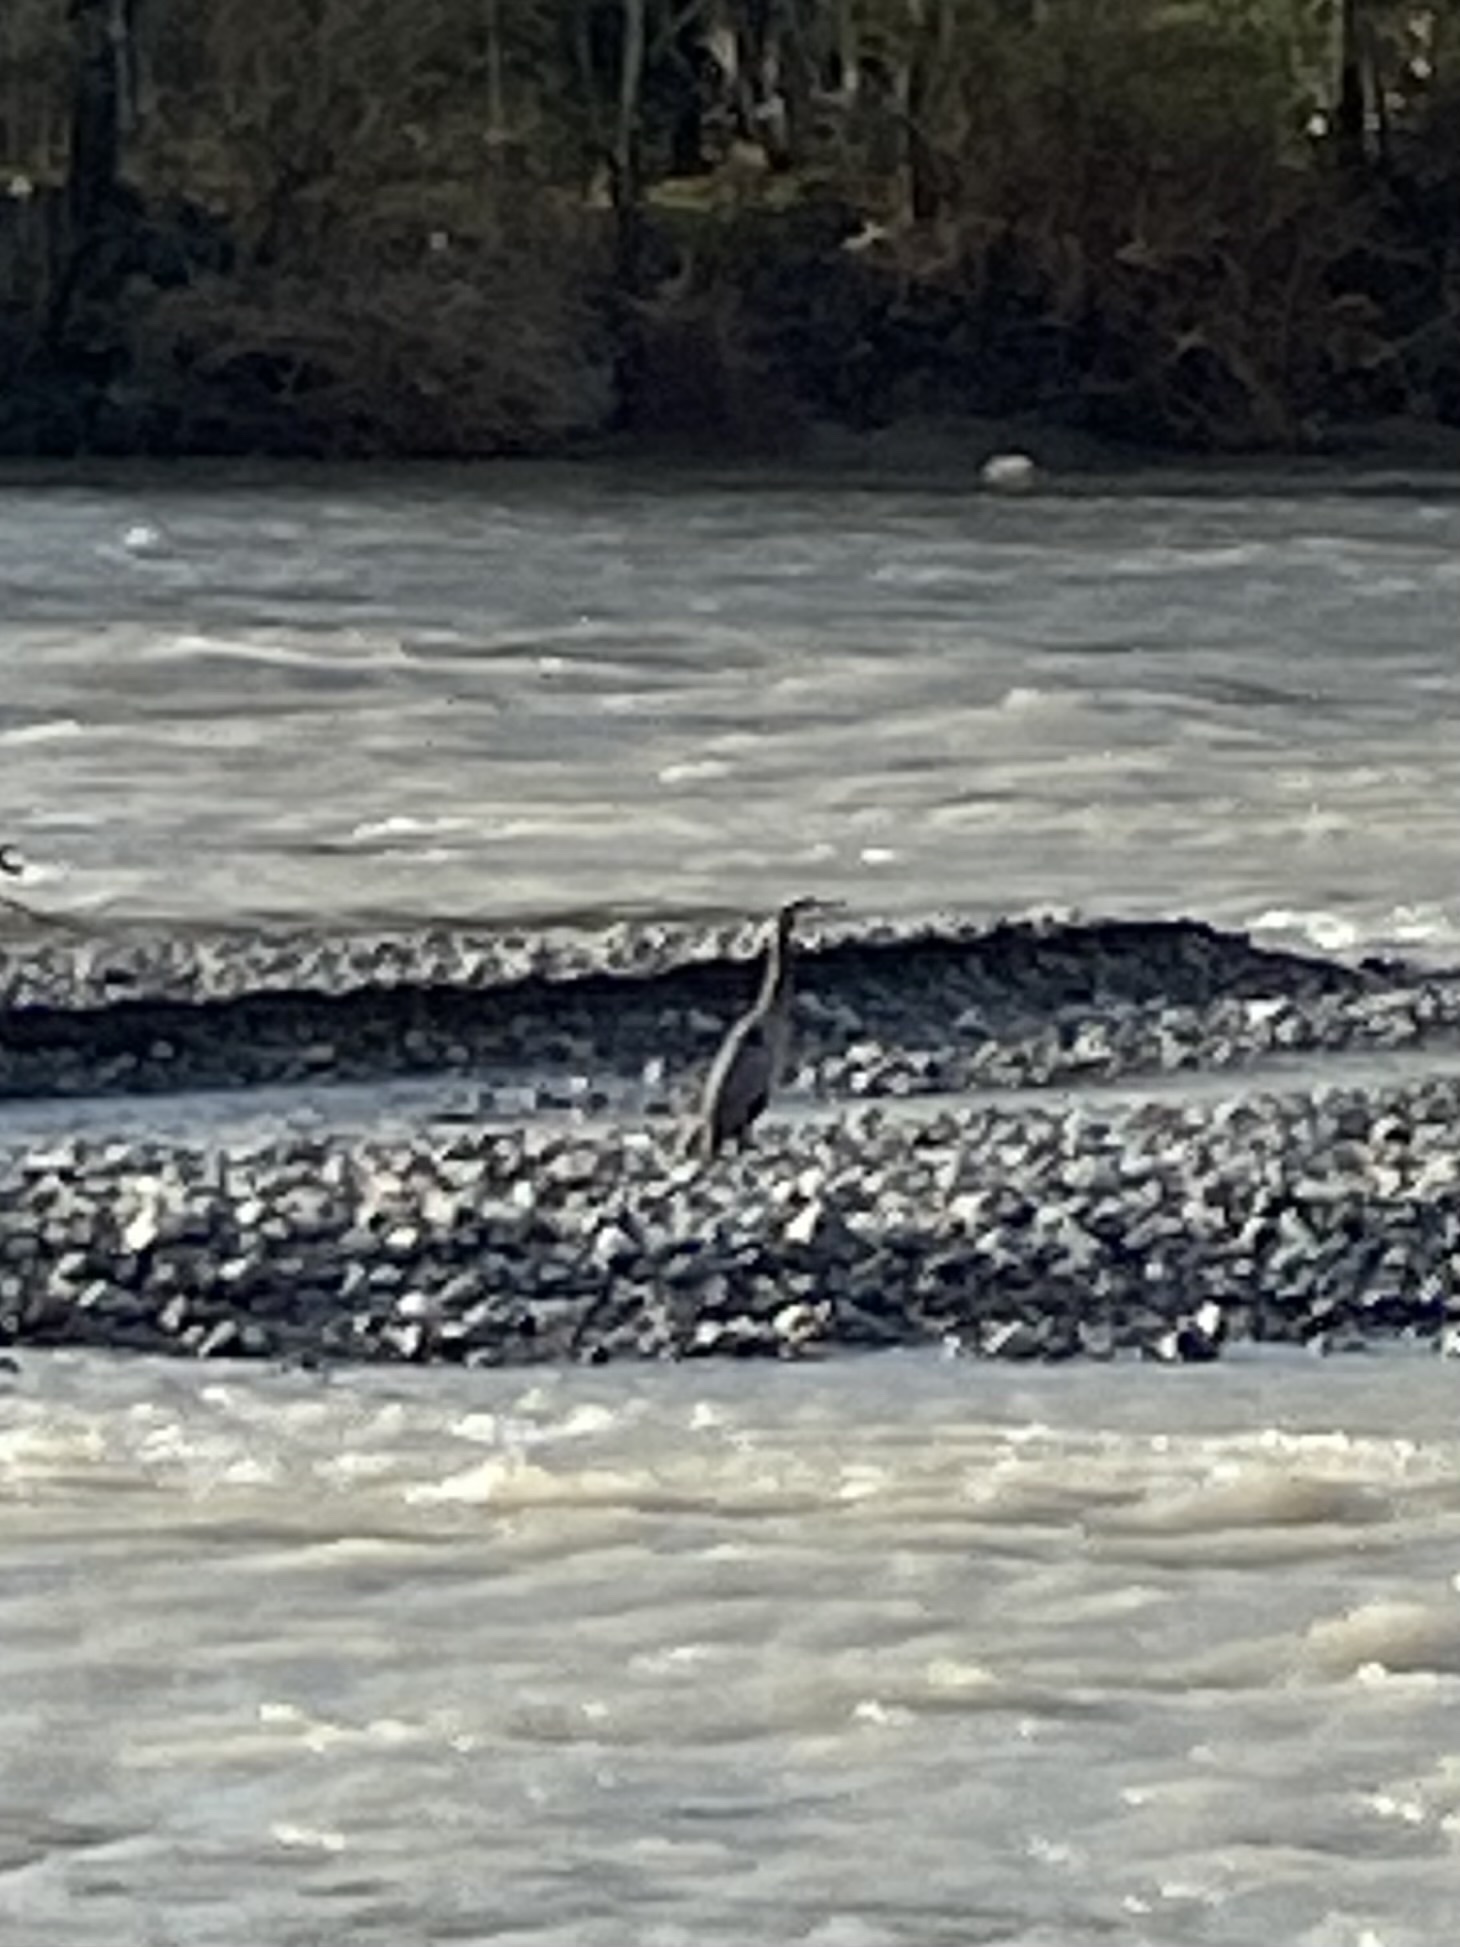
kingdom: Animalia
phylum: Chordata
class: Aves
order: Pelecaniformes
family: Ardeidae
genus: Ardea
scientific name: Ardea herodias
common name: Great blue heron
